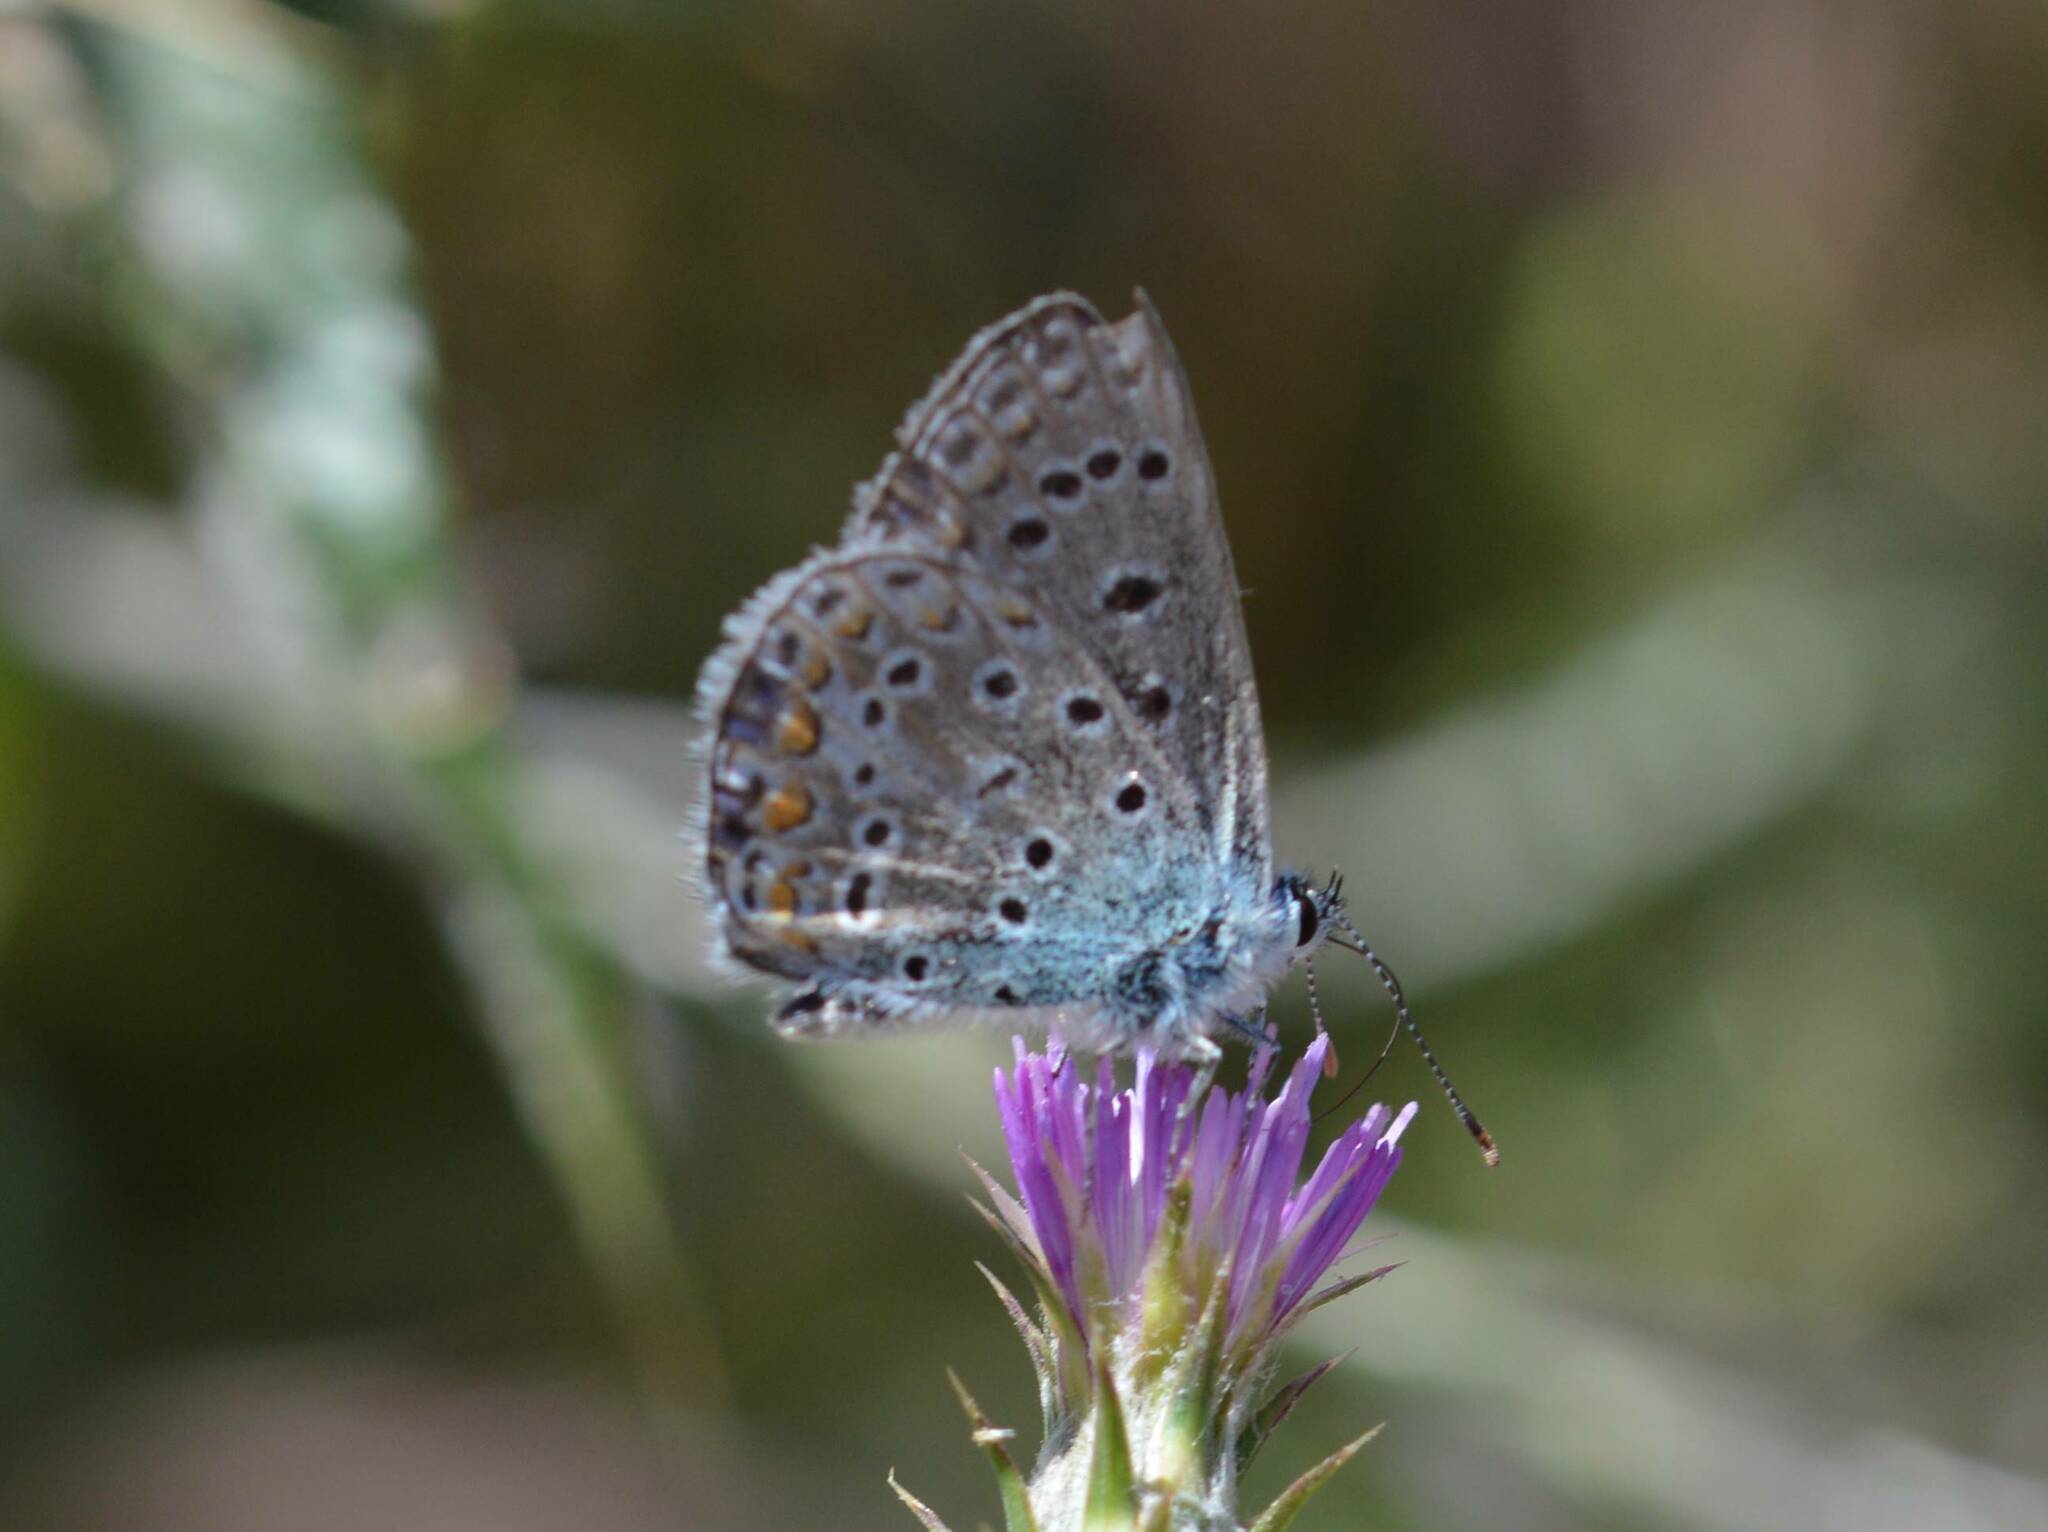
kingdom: Animalia
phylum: Arthropoda
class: Insecta
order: Lepidoptera
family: Lycaenidae
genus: Polyommatus
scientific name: Polyommatus celina
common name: Austaut's blue
